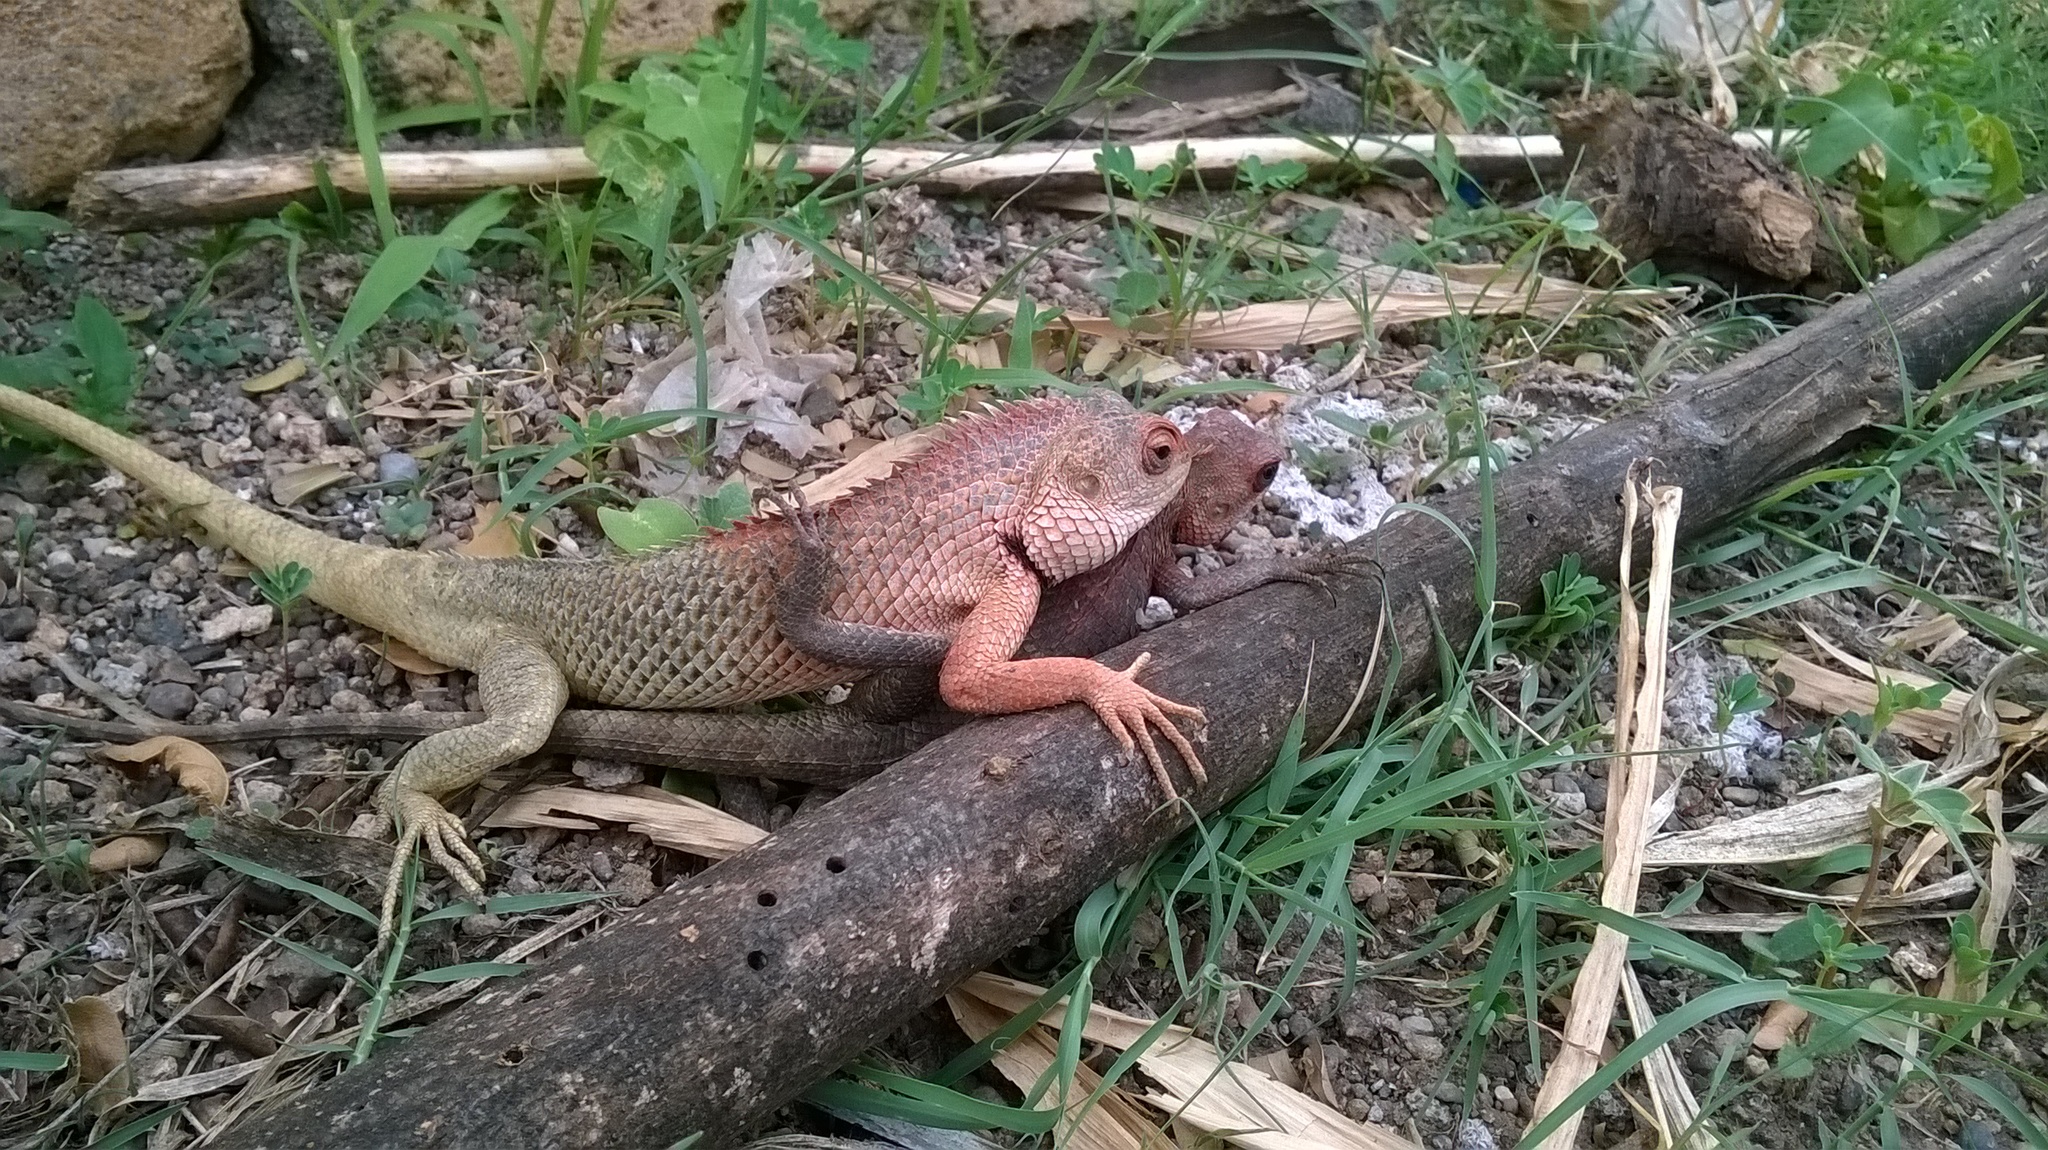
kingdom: Animalia
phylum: Chordata
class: Squamata
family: Agamidae
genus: Calotes
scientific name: Calotes versicolor
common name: Oriental garden lizard
